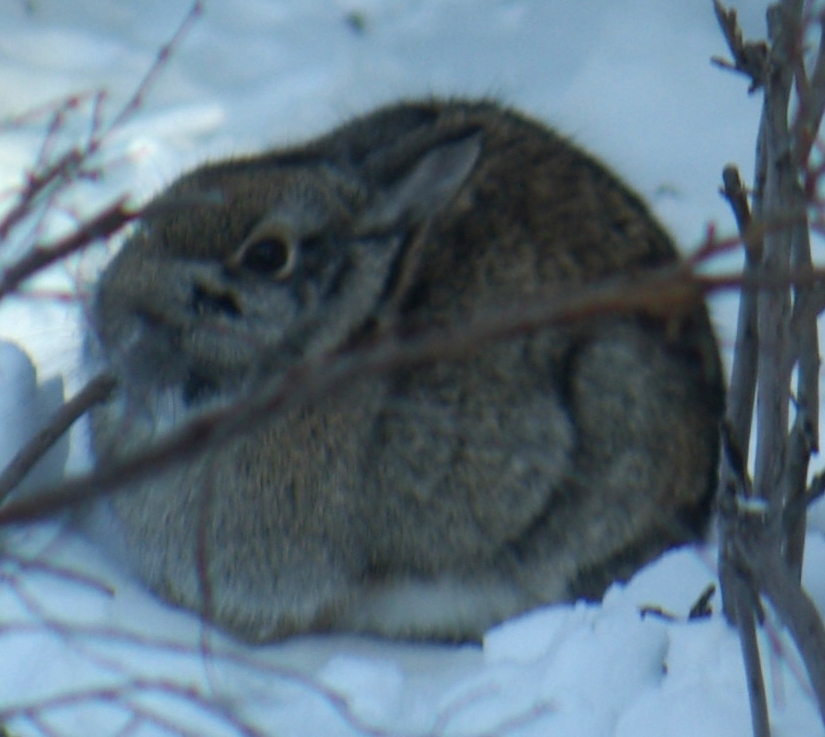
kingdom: Animalia
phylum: Chordata
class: Mammalia
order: Lagomorpha
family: Leporidae
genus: Sylvilagus
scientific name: Sylvilagus floridanus
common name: Eastern cottontail
